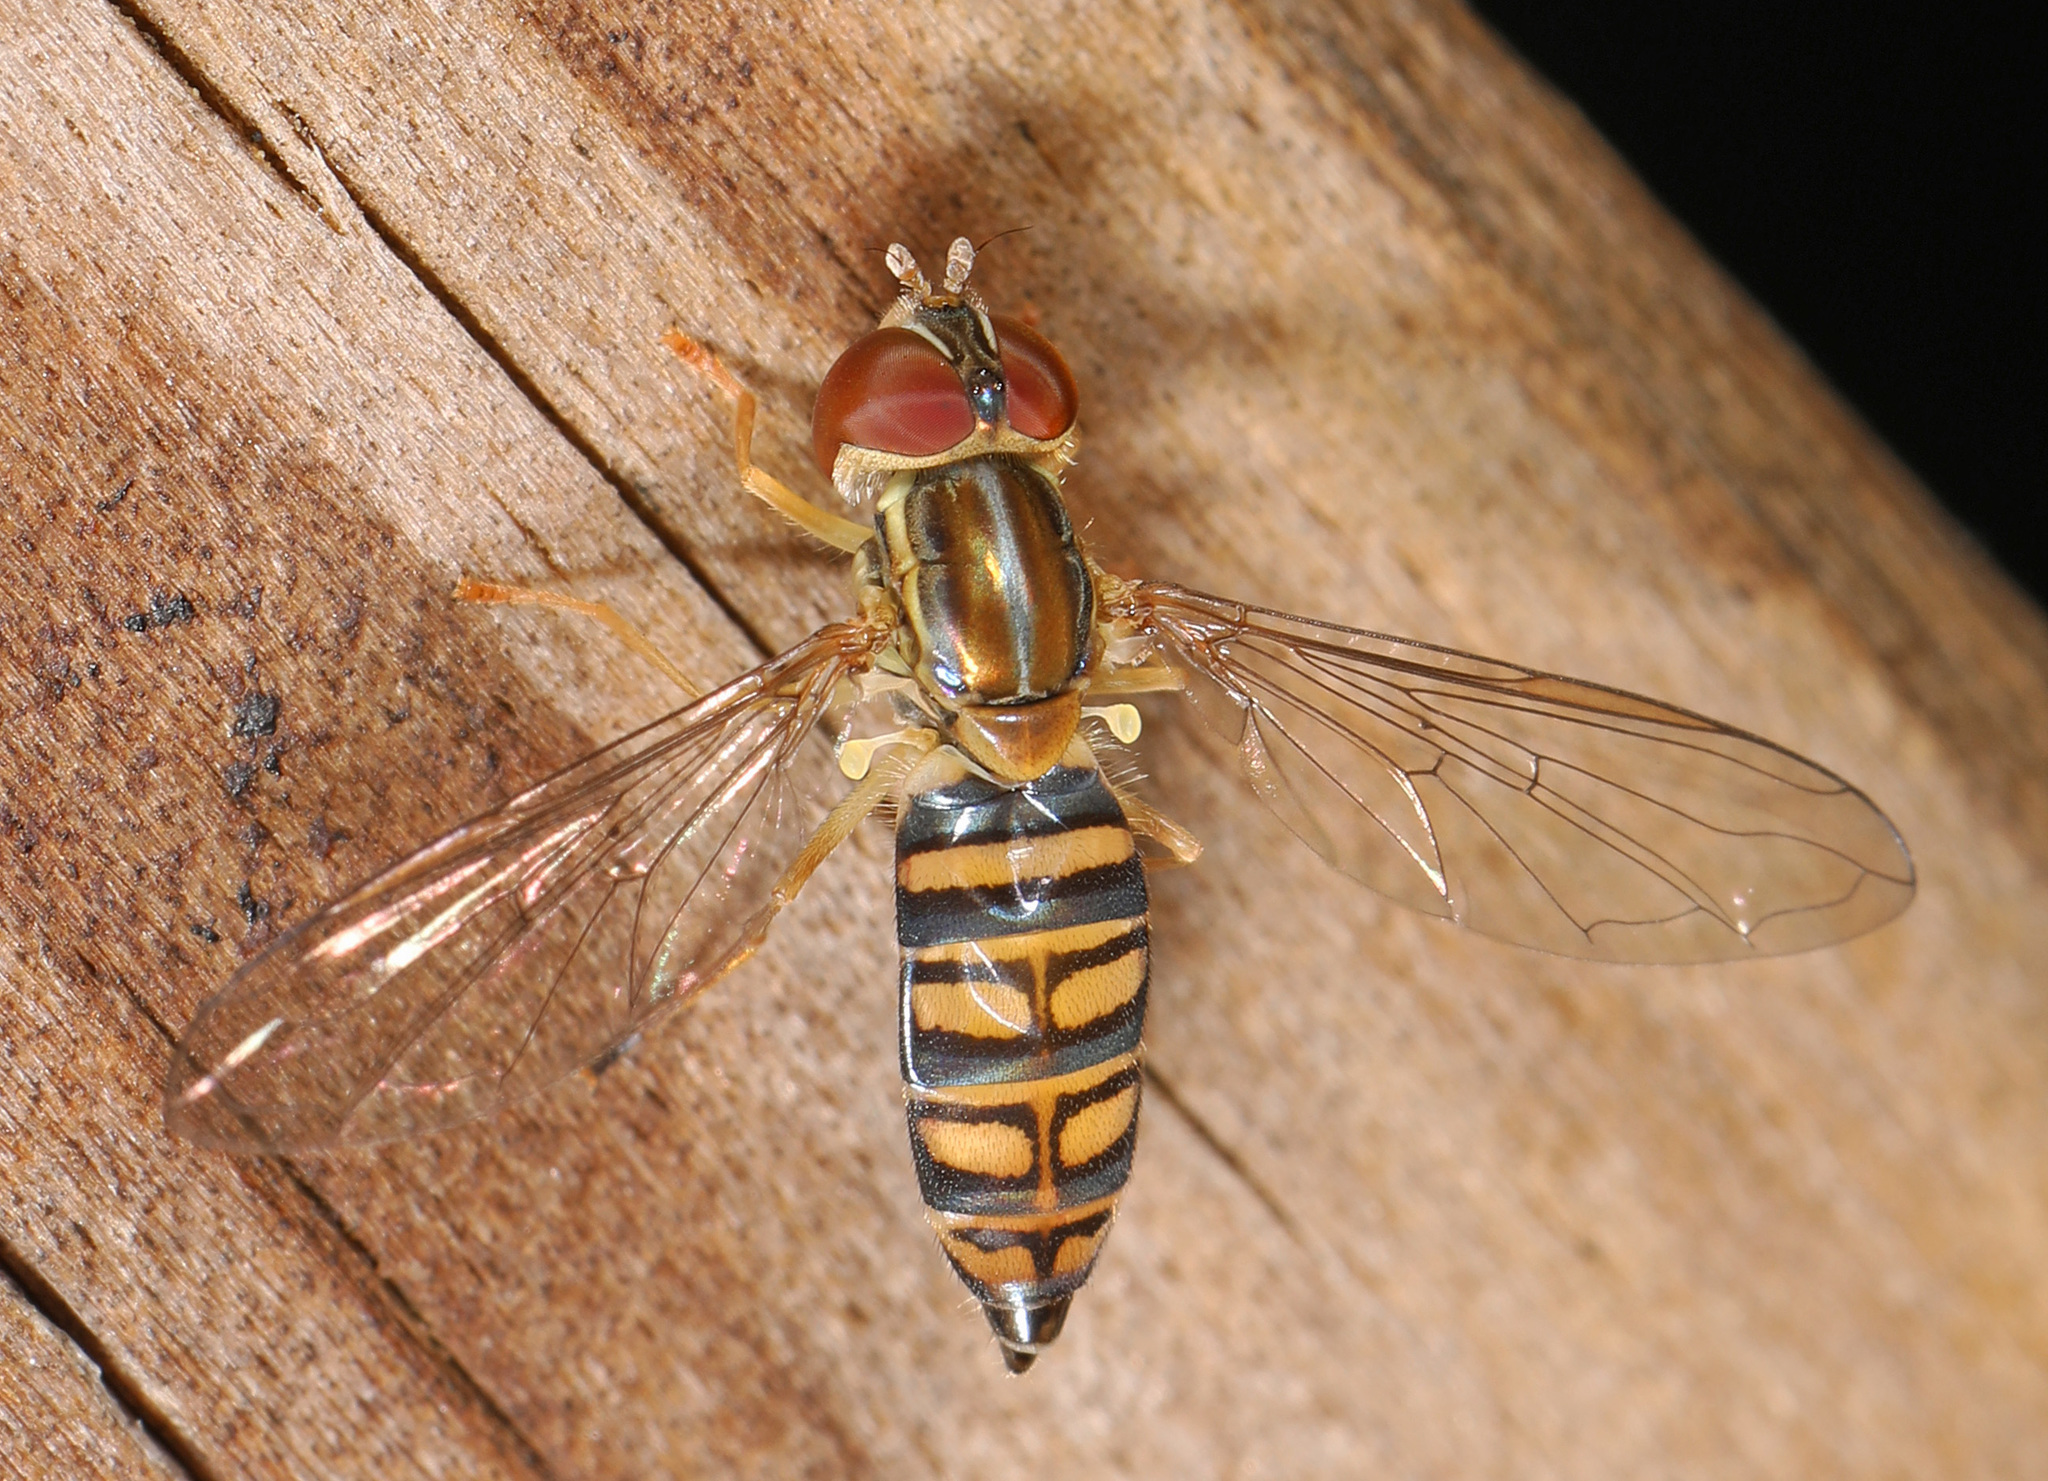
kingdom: Animalia
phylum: Arthropoda
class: Insecta
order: Diptera
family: Syrphidae
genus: Toxomerus
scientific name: Toxomerus politus
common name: Maize calligrapher
